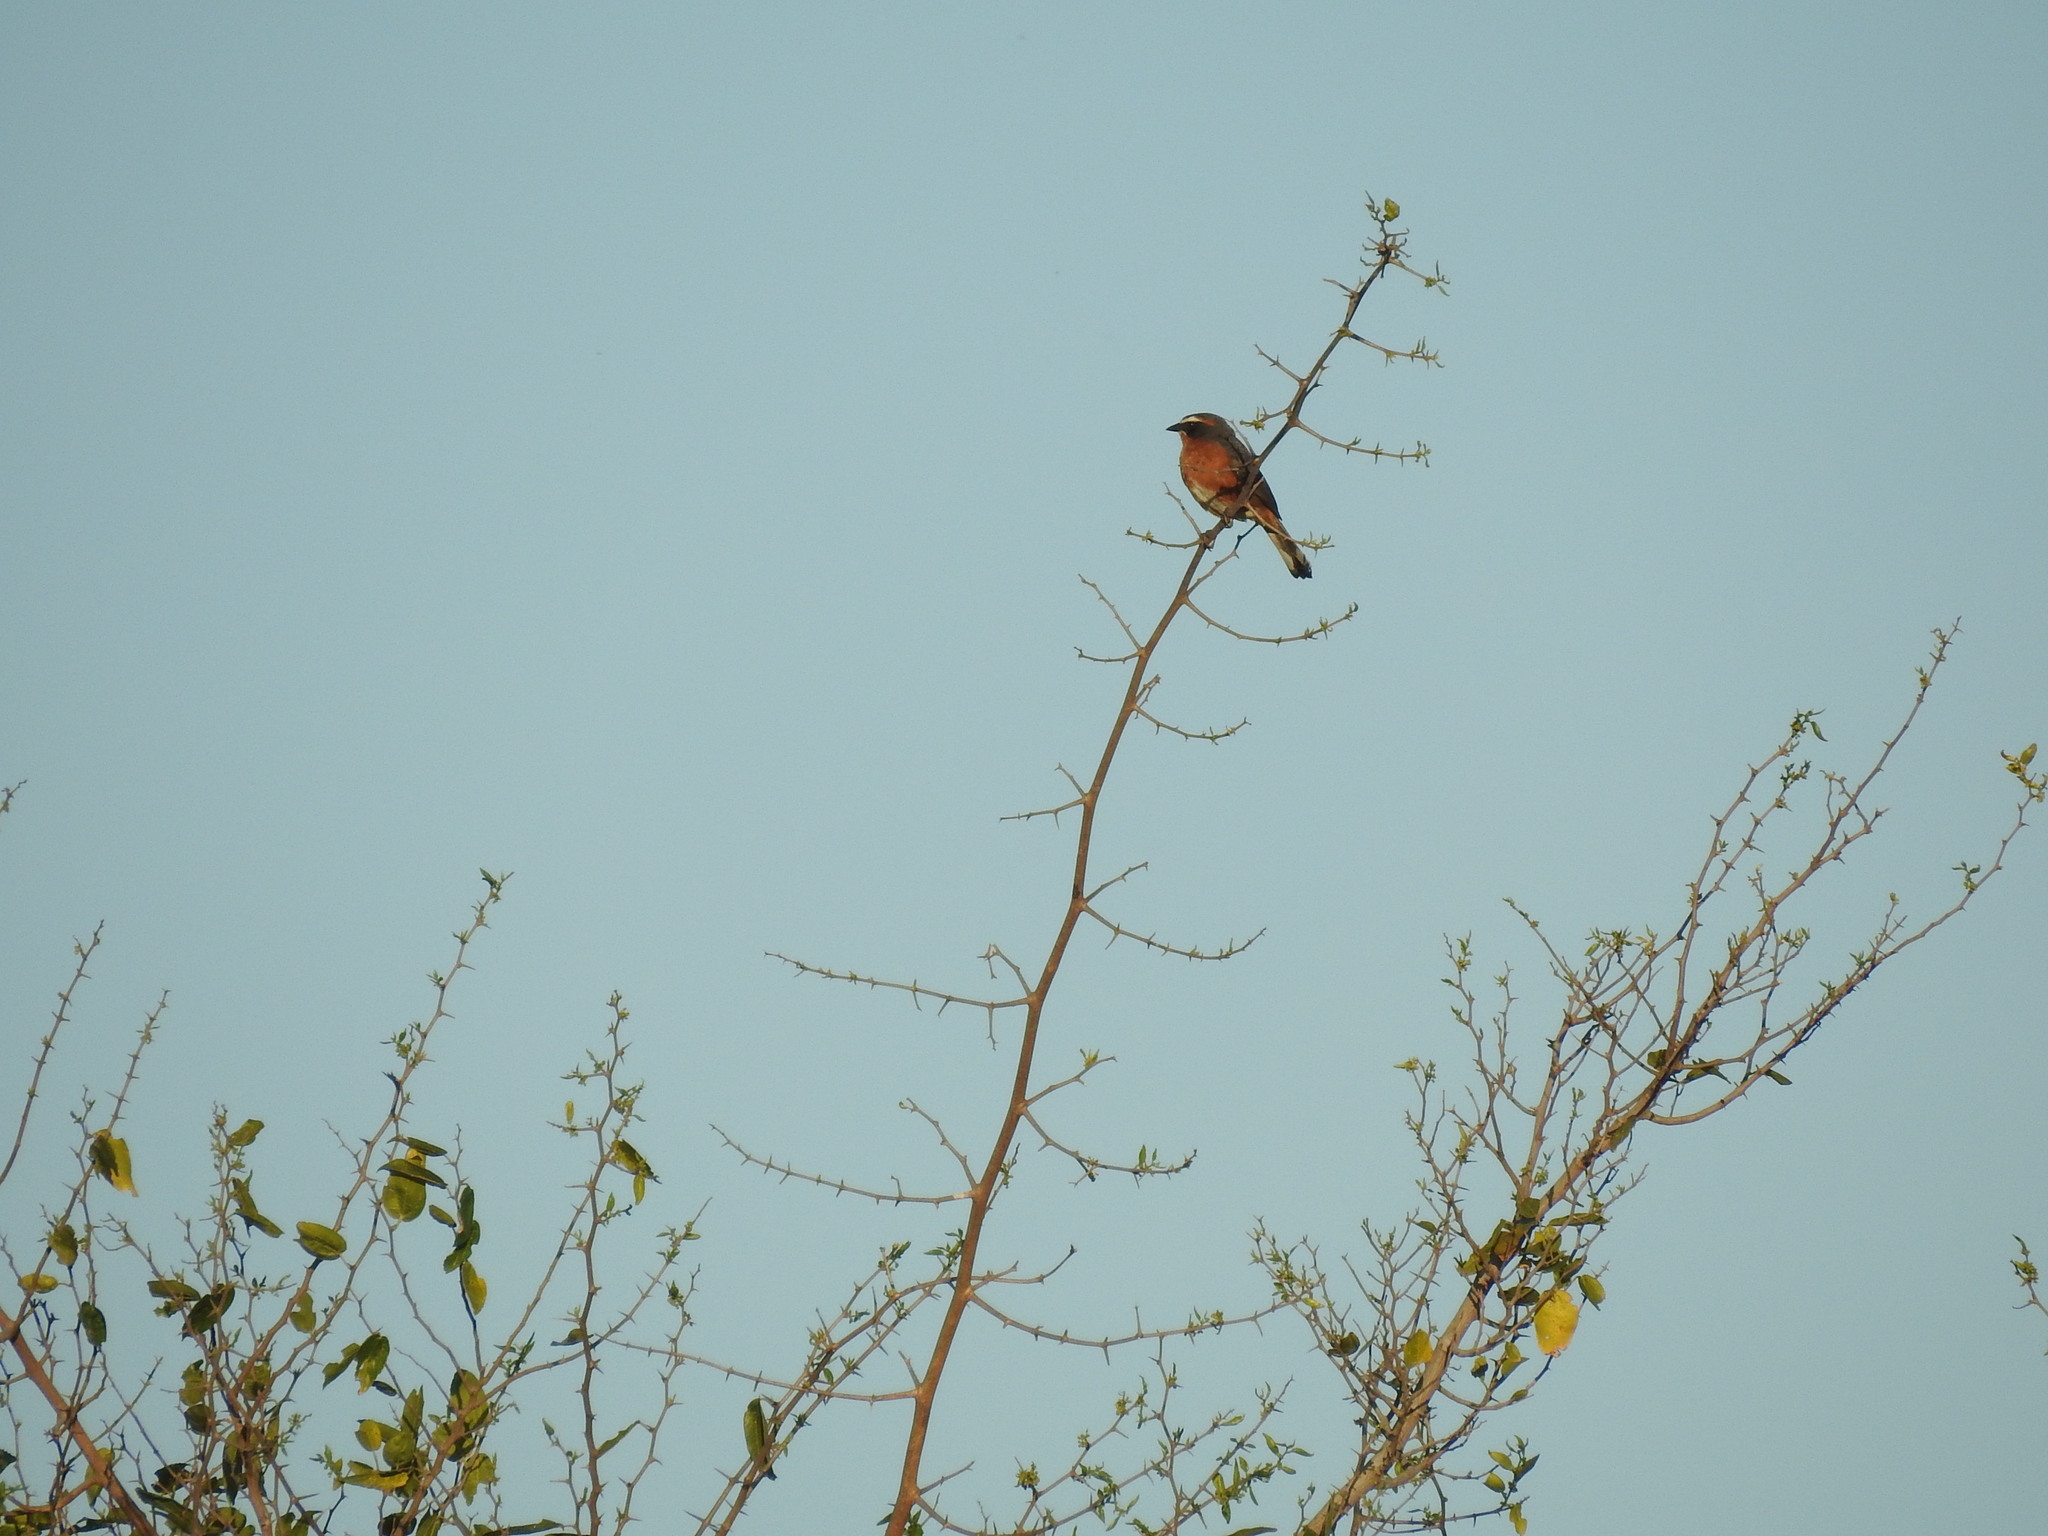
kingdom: Animalia
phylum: Chordata
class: Aves
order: Passeriformes
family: Thraupidae
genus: Poospiza
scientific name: Poospiza nigrorufa
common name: Black-and-rufous warbling finch
